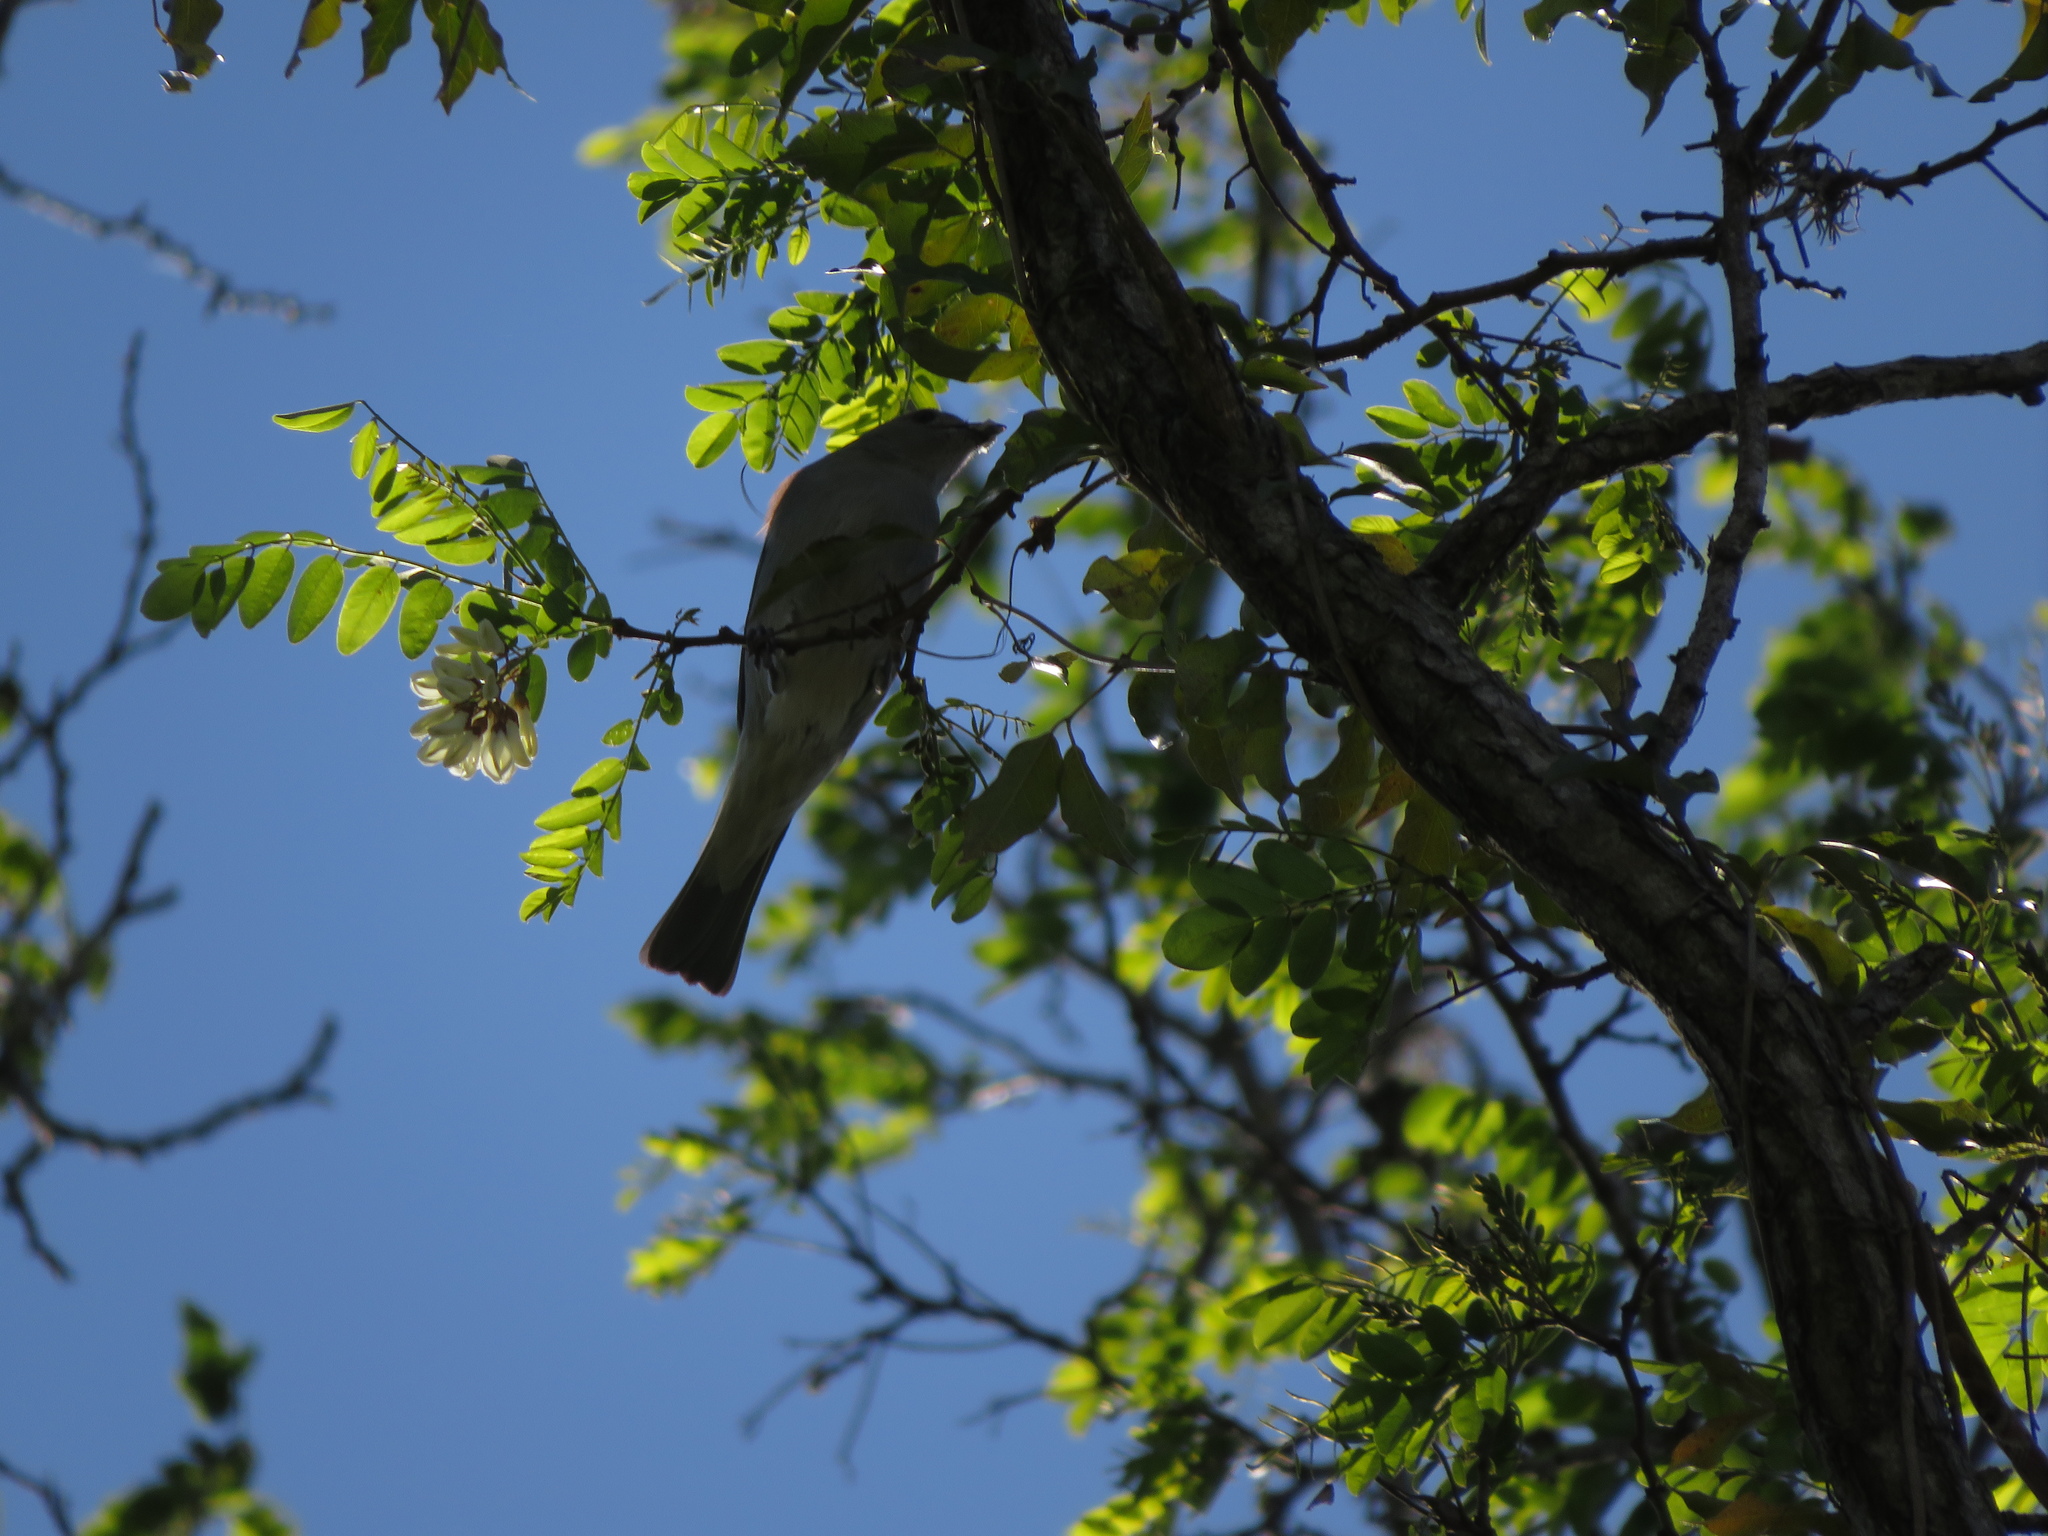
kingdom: Animalia
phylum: Chordata
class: Aves
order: Passeriformes
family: Thraupidae
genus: Thraupis
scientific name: Thraupis sayaca
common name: Sayaca tanager
